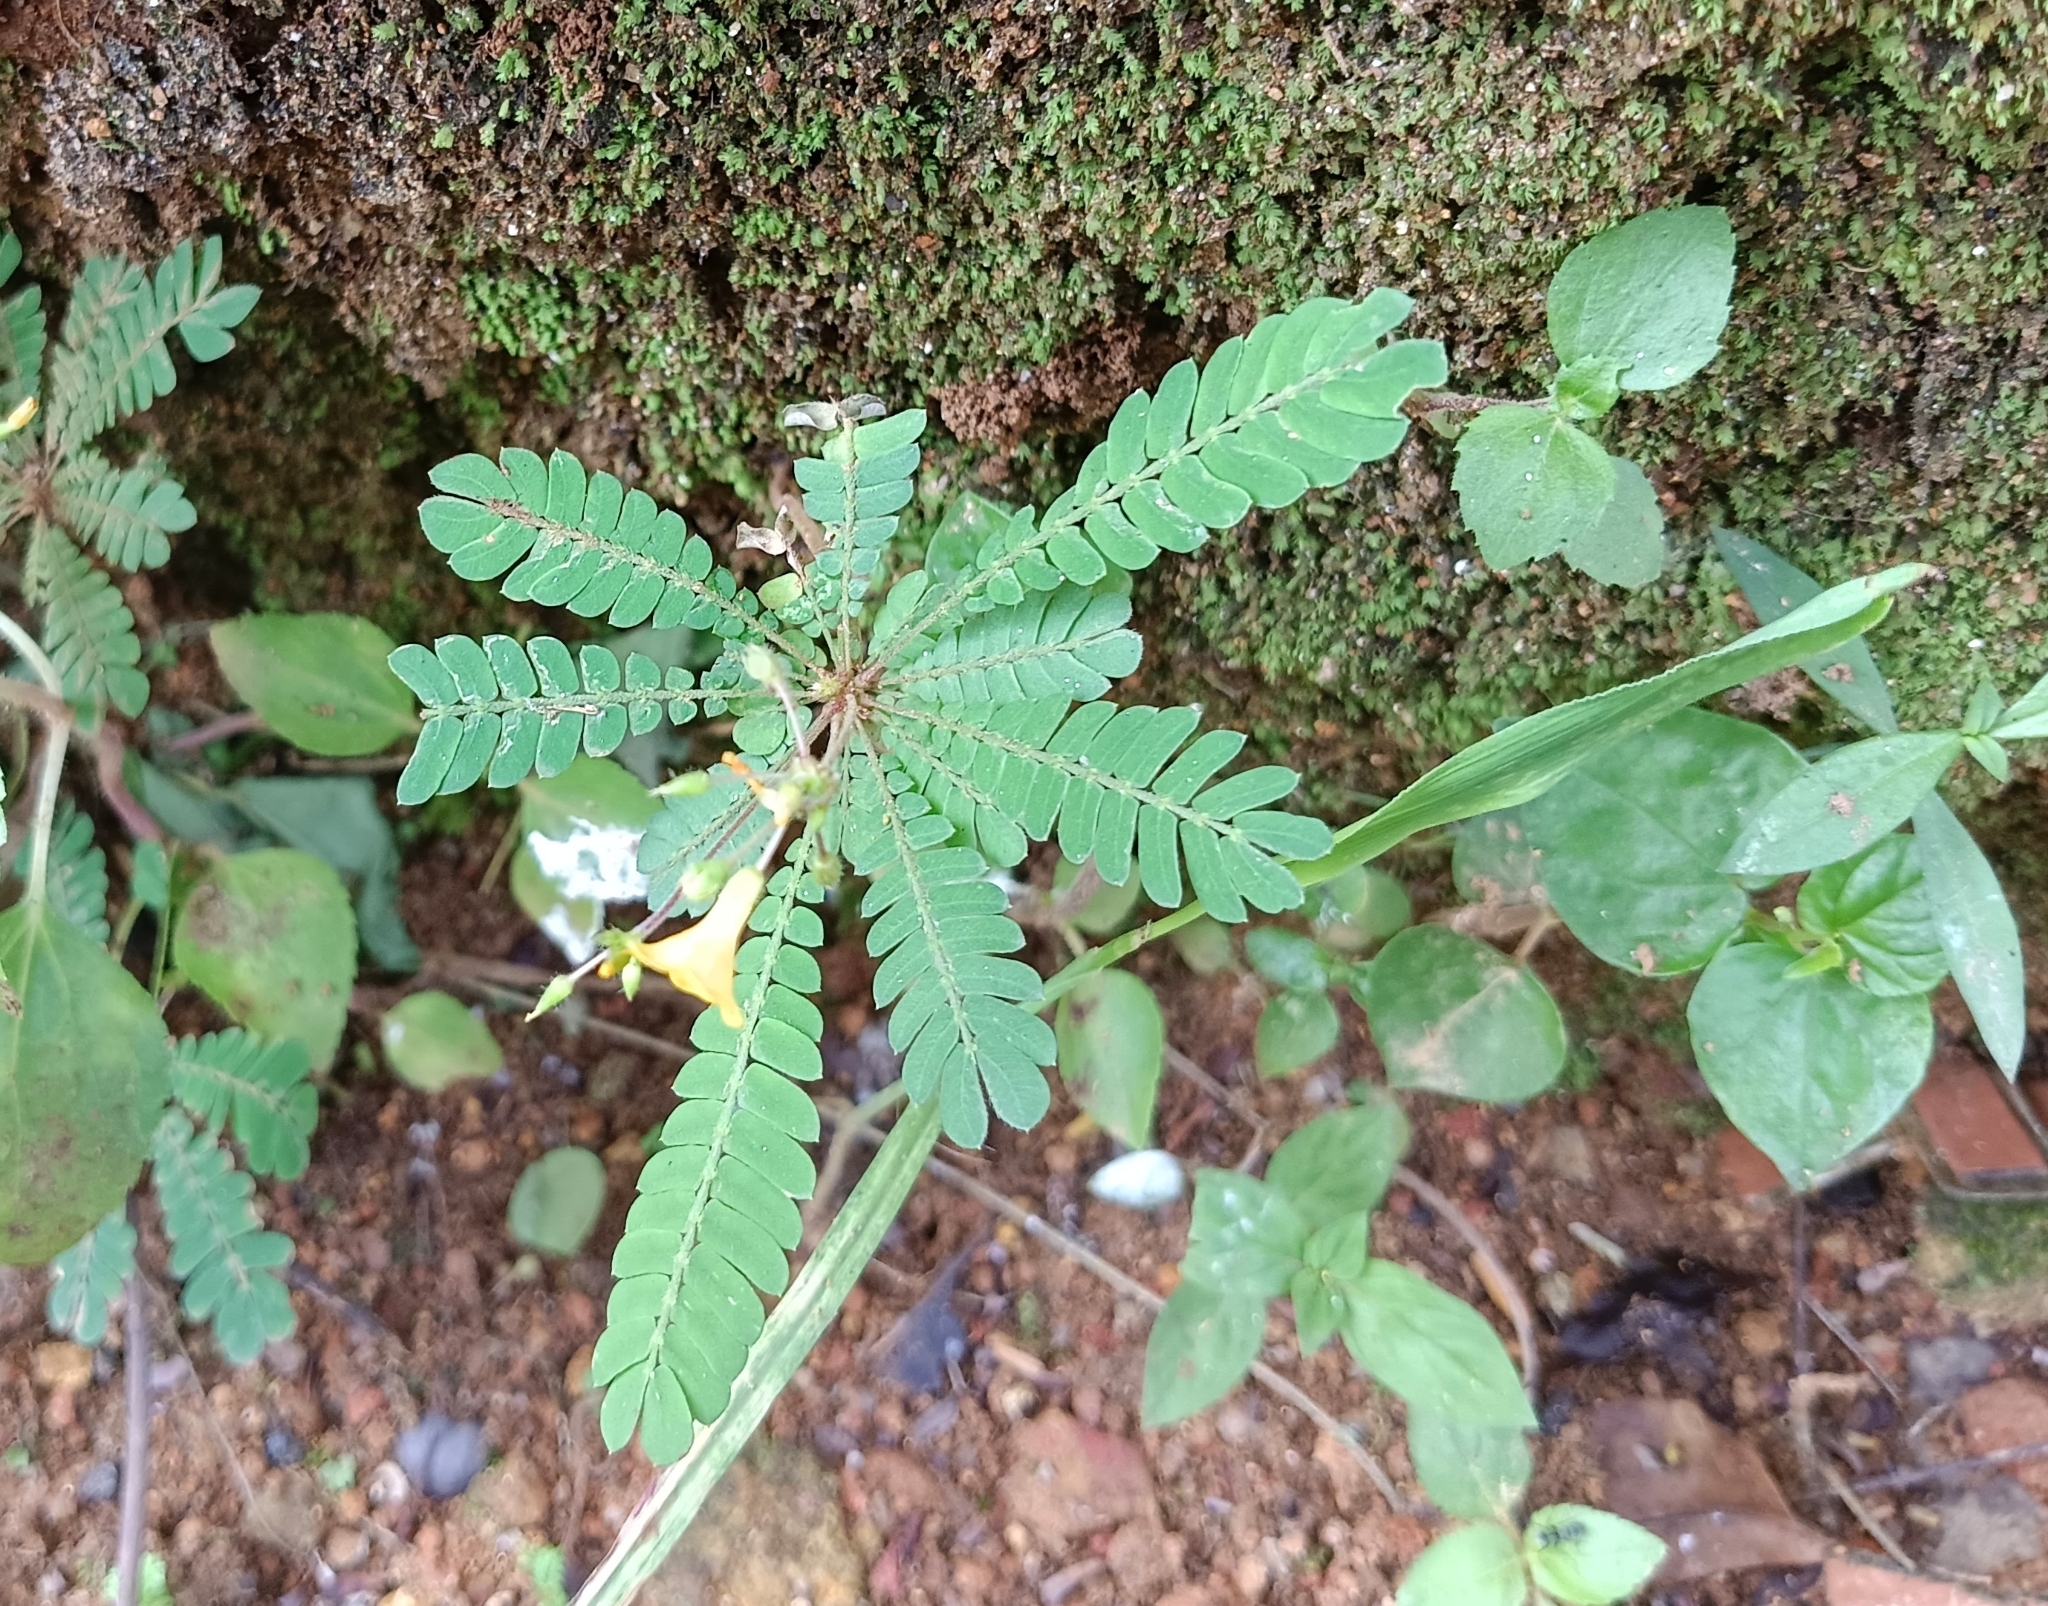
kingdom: Plantae
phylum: Tracheophyta
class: Magnoliopsida
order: Oxalidales
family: Oxalidaceae
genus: Biophytum
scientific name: Biophytum sensitivum
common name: Lifeplant
